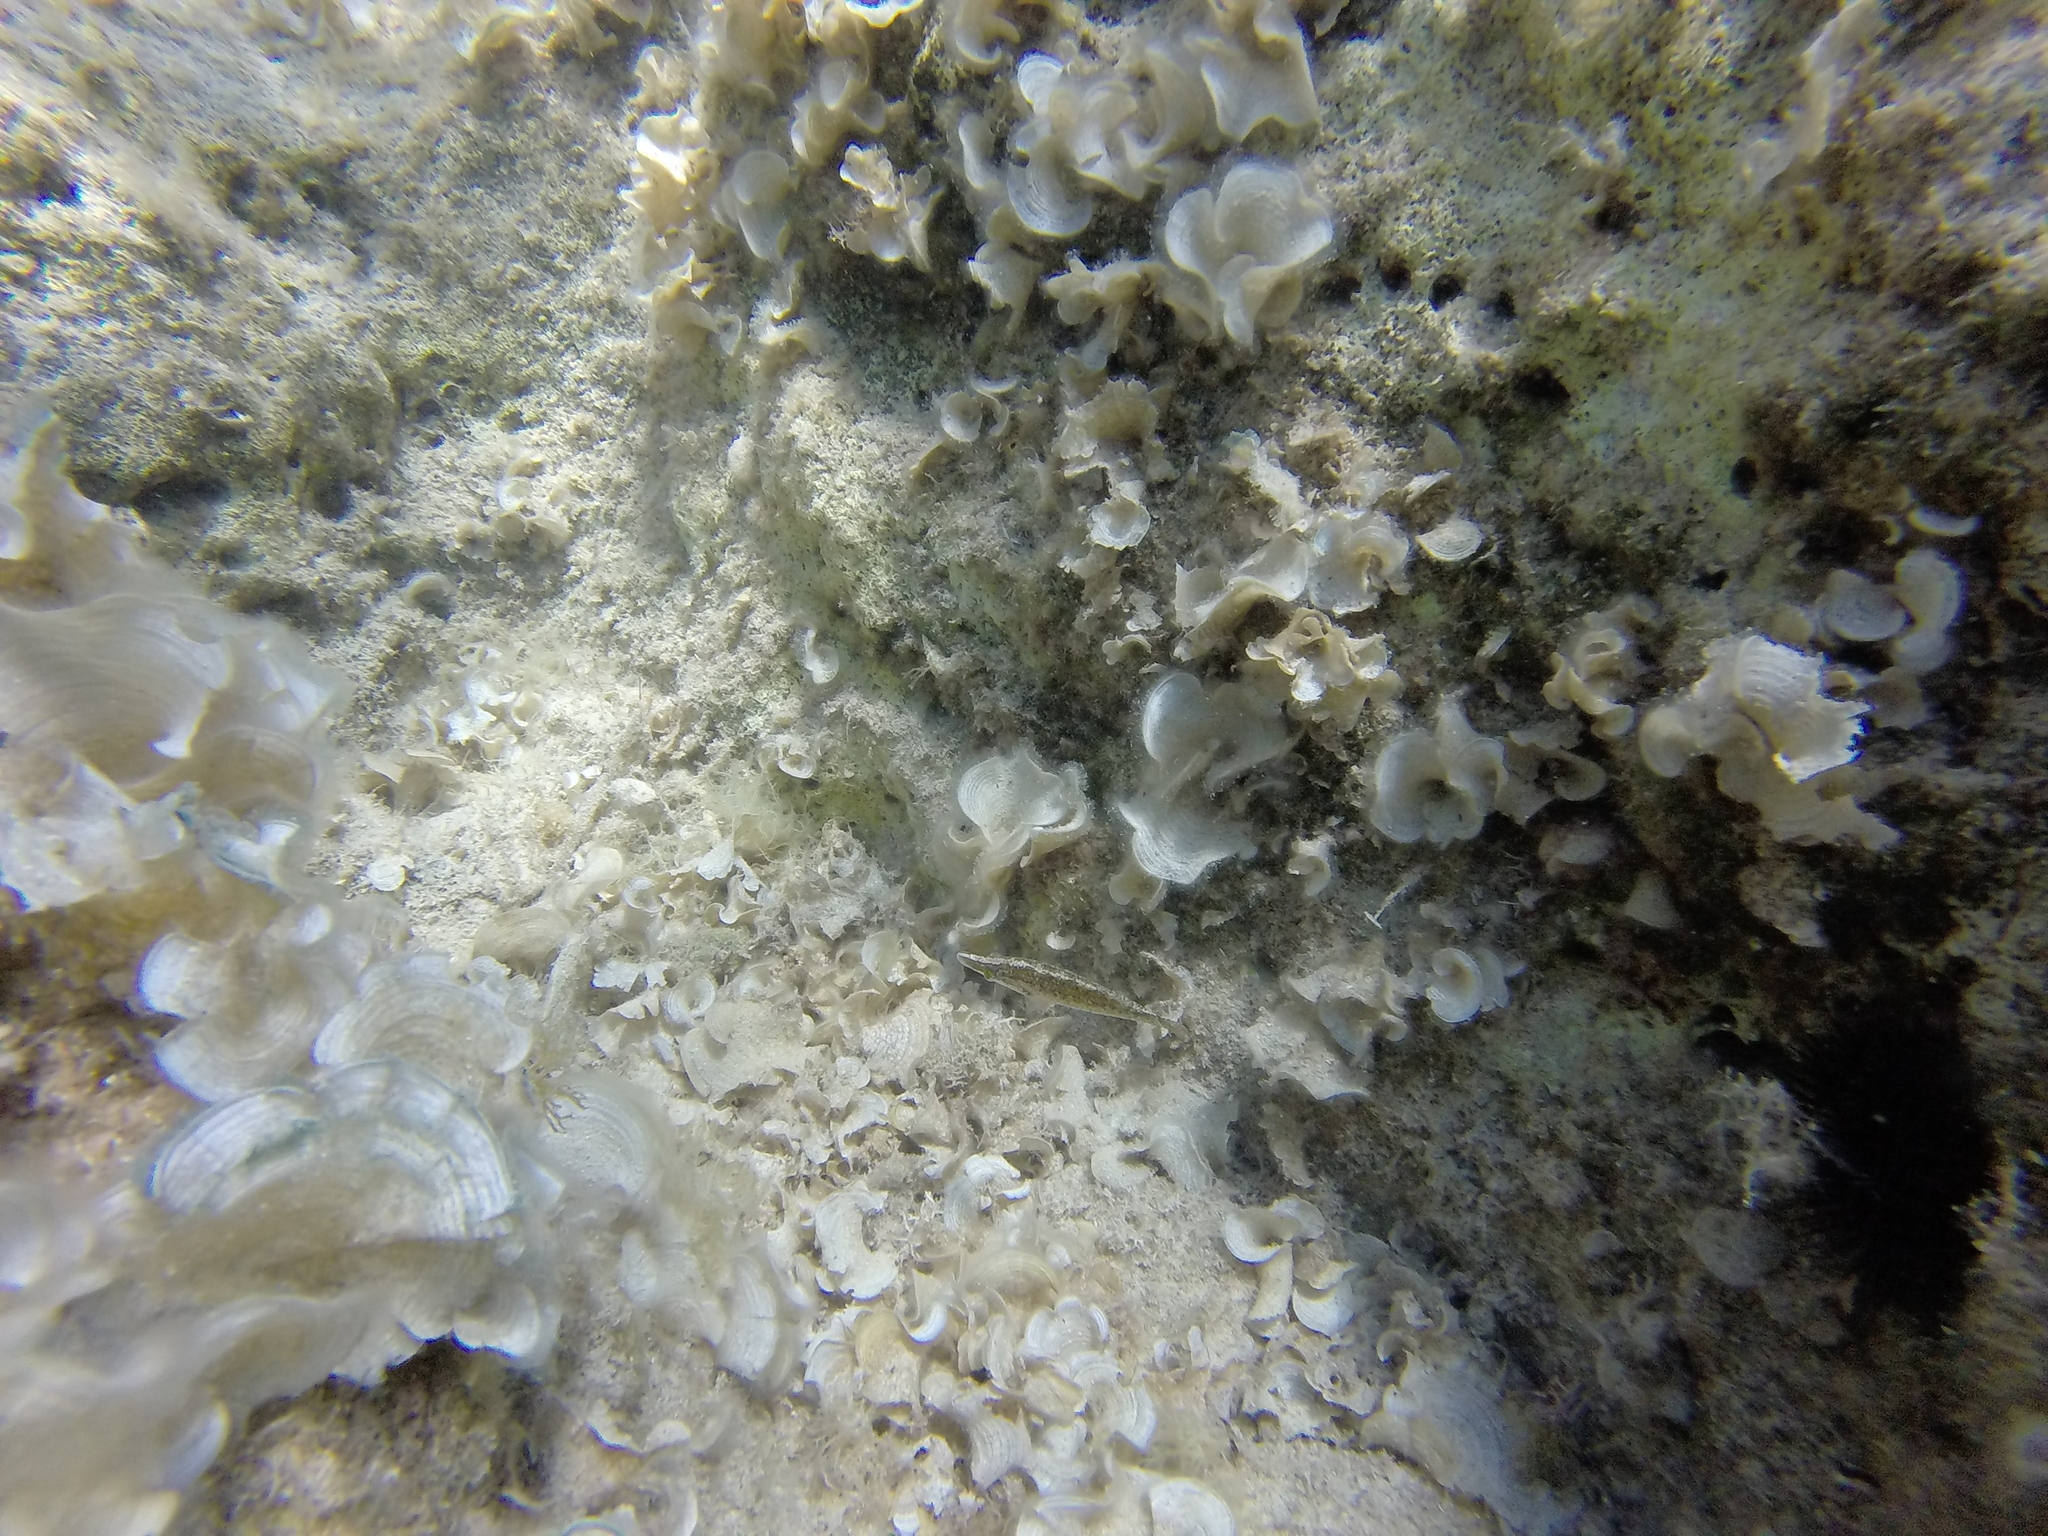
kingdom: Animalia
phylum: Chordata
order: Perciformes
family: Labridae
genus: Symphodus
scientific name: Symphodus rostratus
